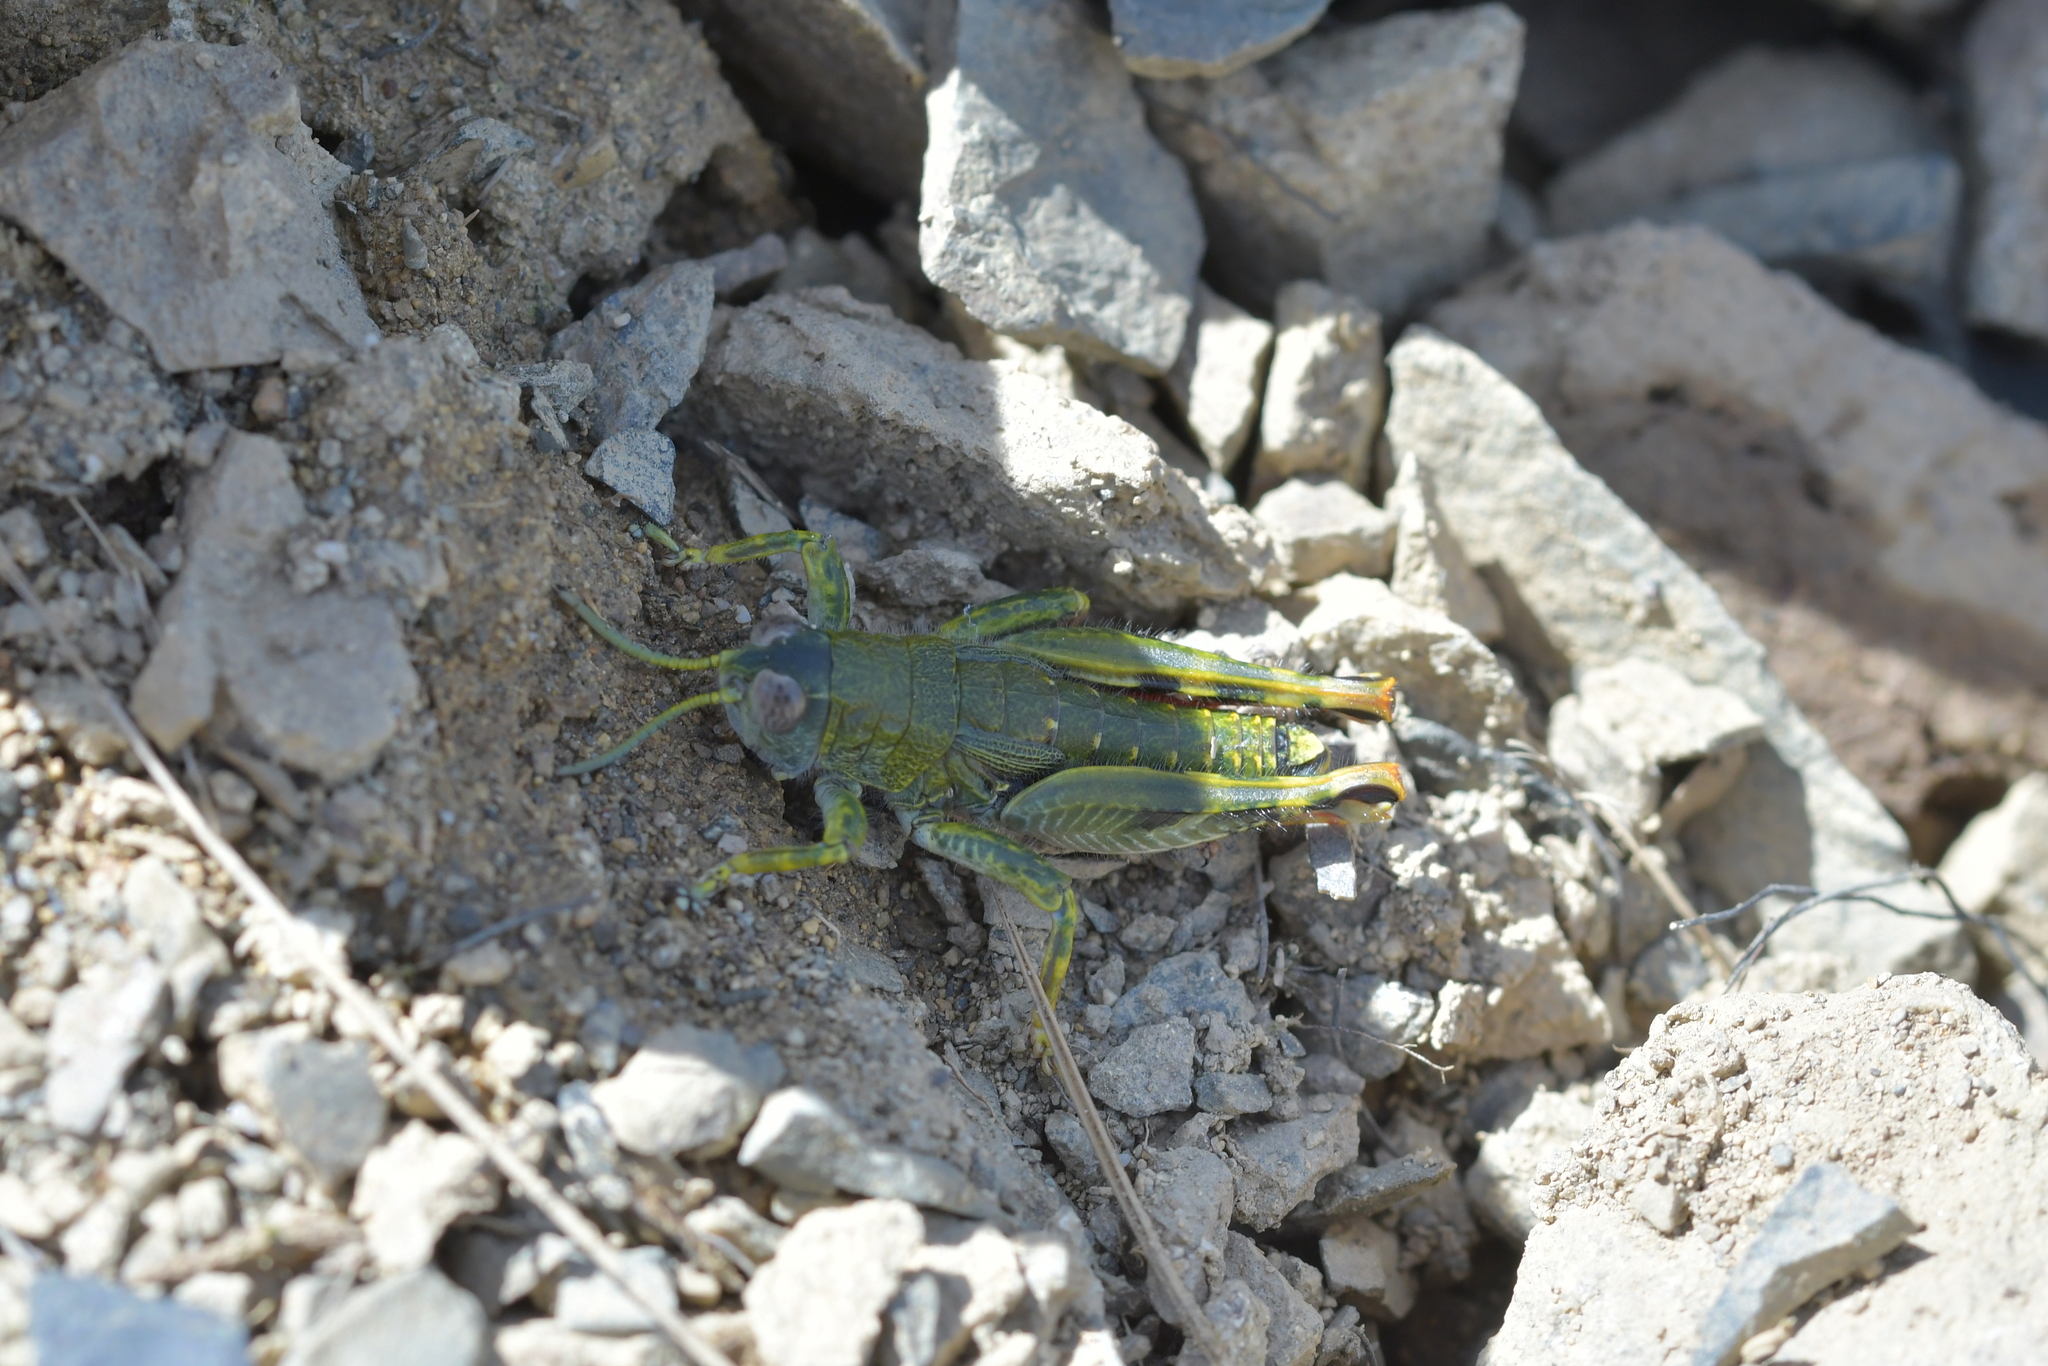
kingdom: Animalia
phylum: Arthropoda
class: Insecta
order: Orthoptera
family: Acrididae
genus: Sigaus
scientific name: Sigaus
